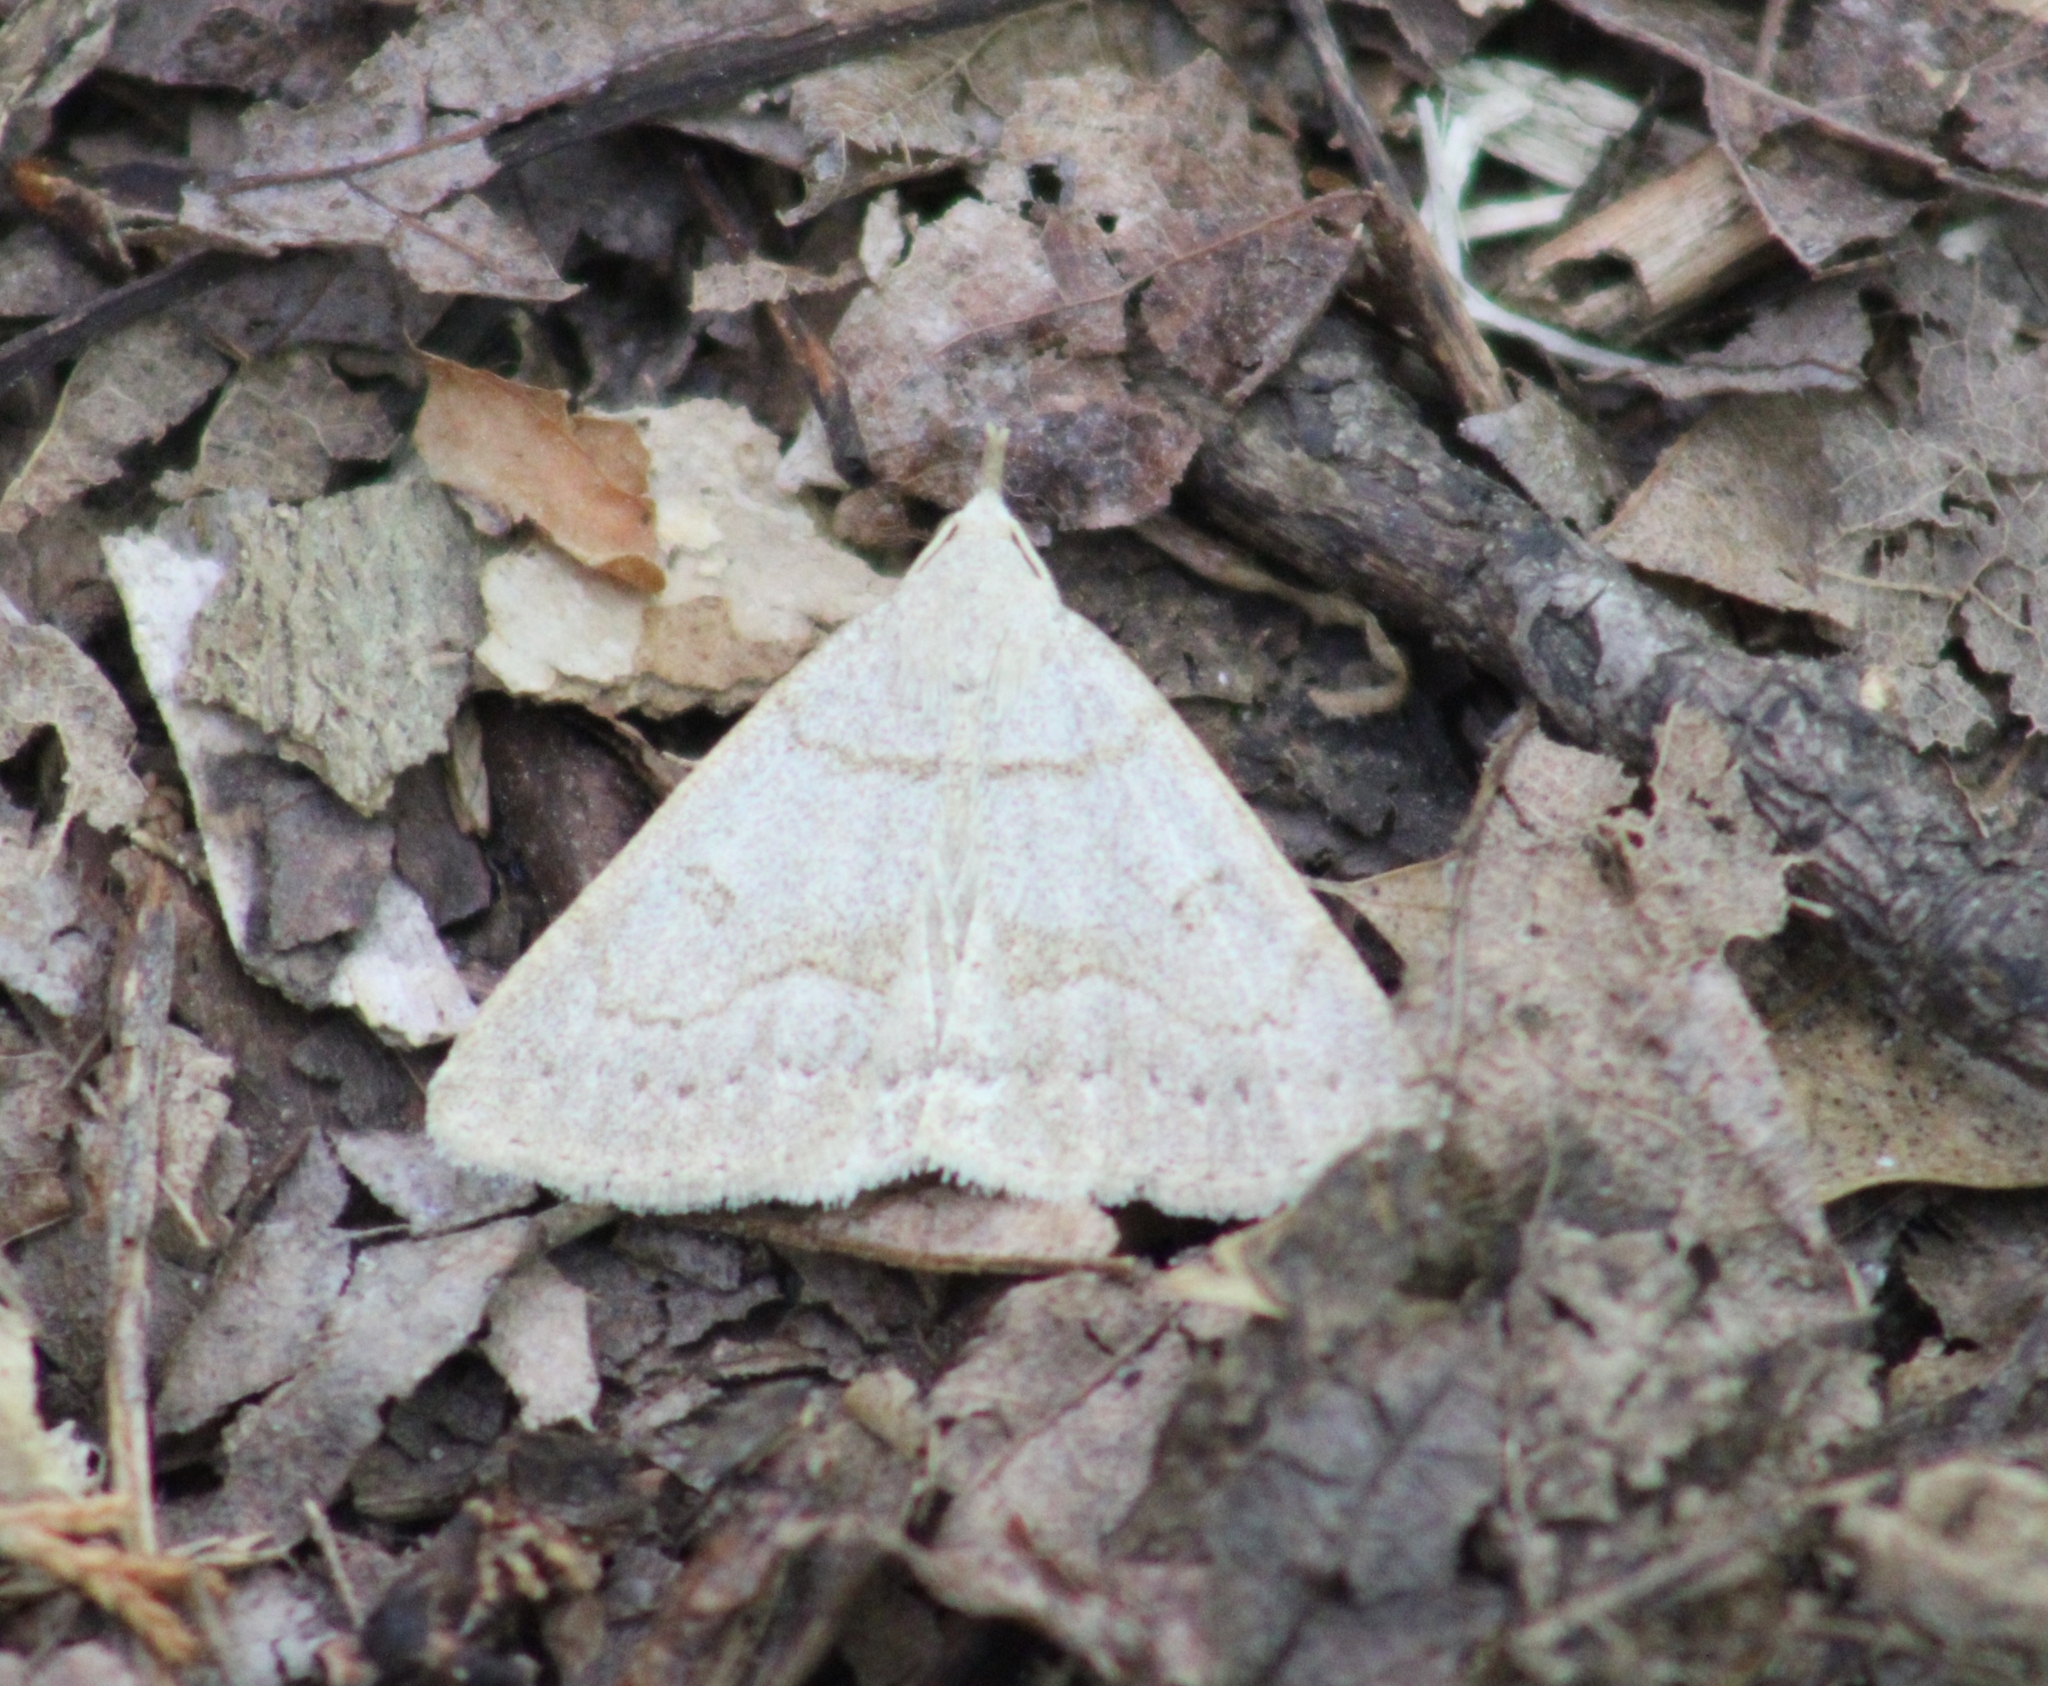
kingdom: Animalia
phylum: Arthropoda
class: Insecta
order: Lepidoptera
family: Erebidae
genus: Macrochilo
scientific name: Macrochilo morbidalis
